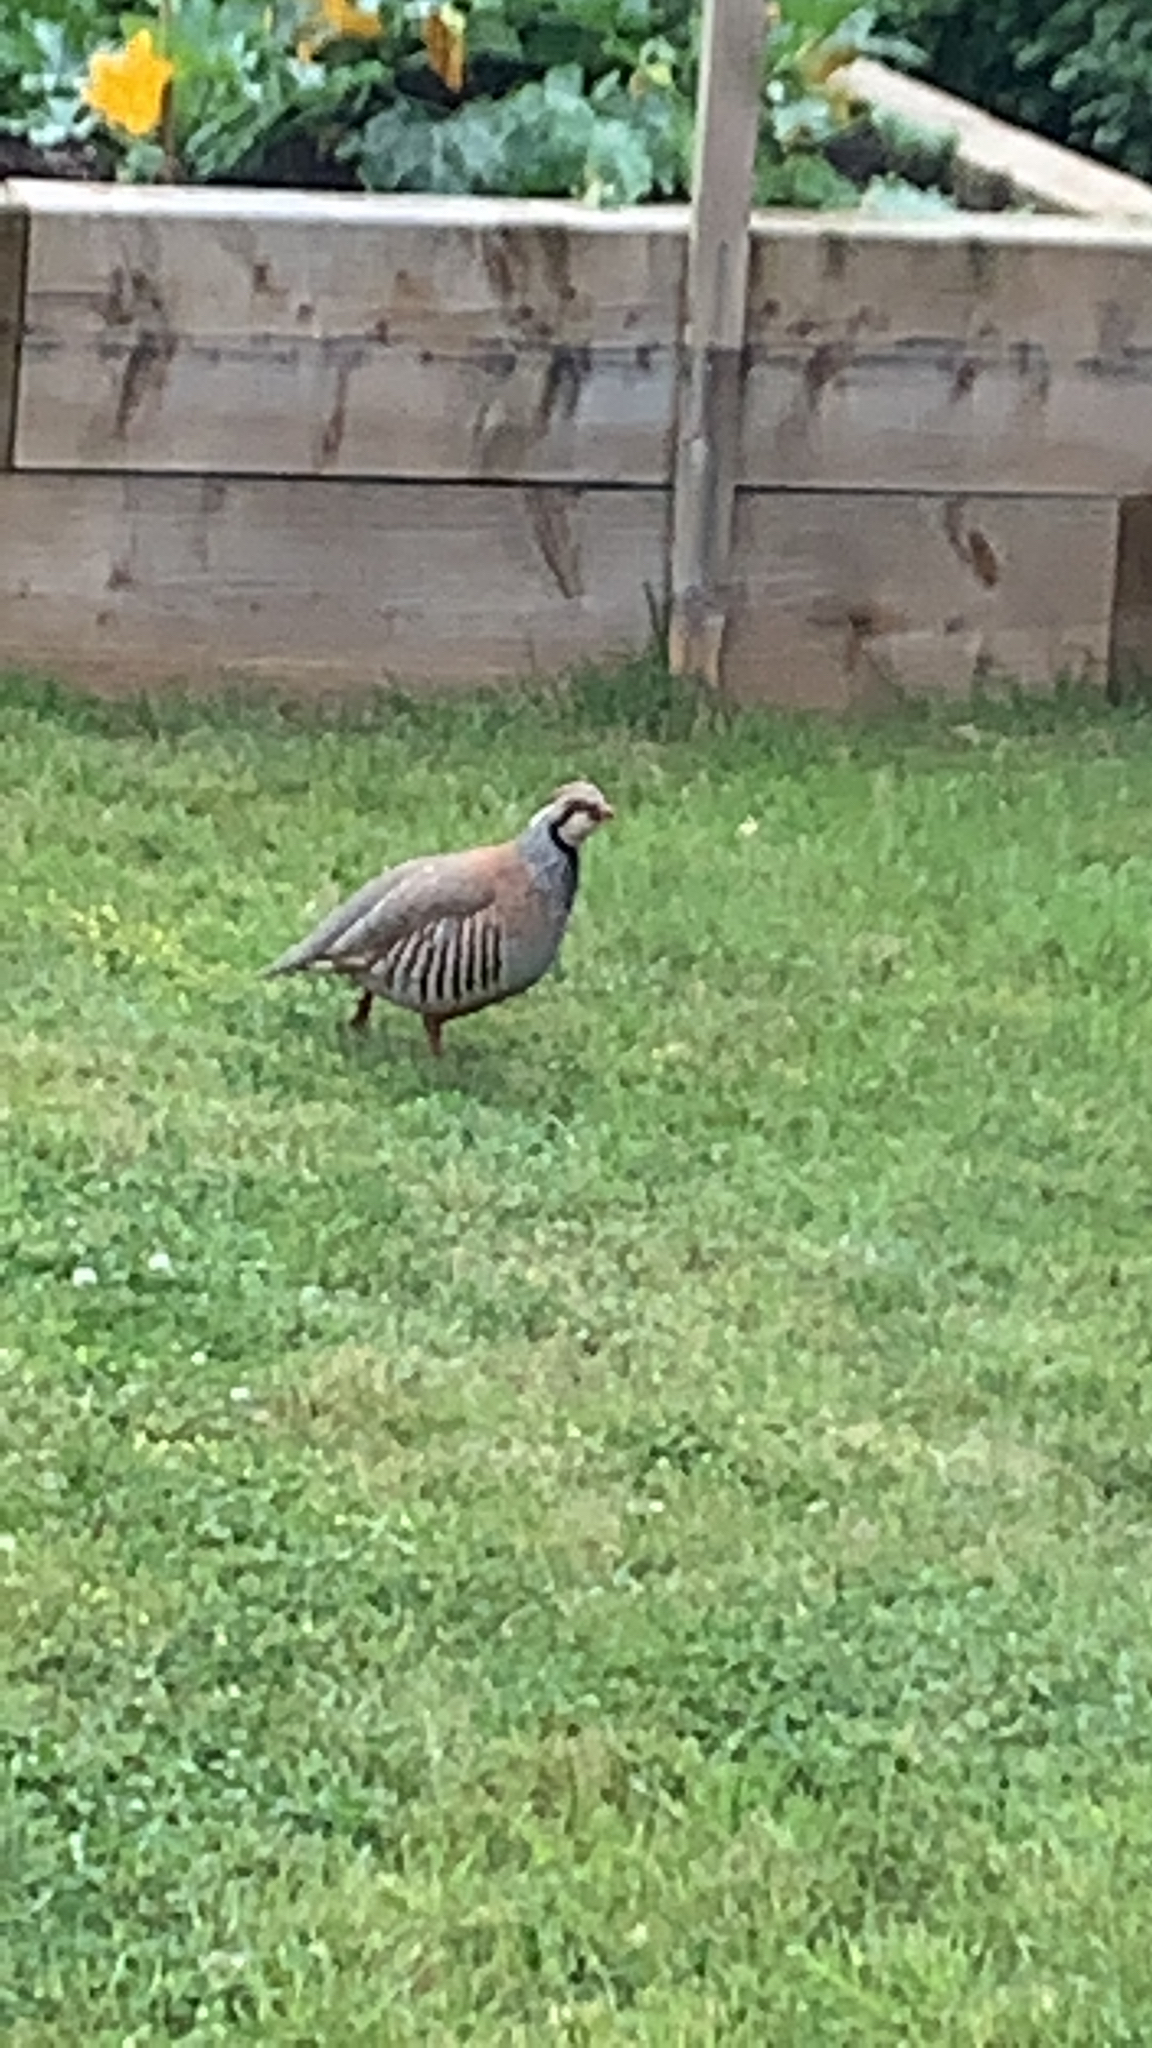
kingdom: Animalia
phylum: Chordata
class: Aves
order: Galliformes
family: Phasianidae
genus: Alectoris
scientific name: Alectoris rufa
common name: Red-legged partridge
